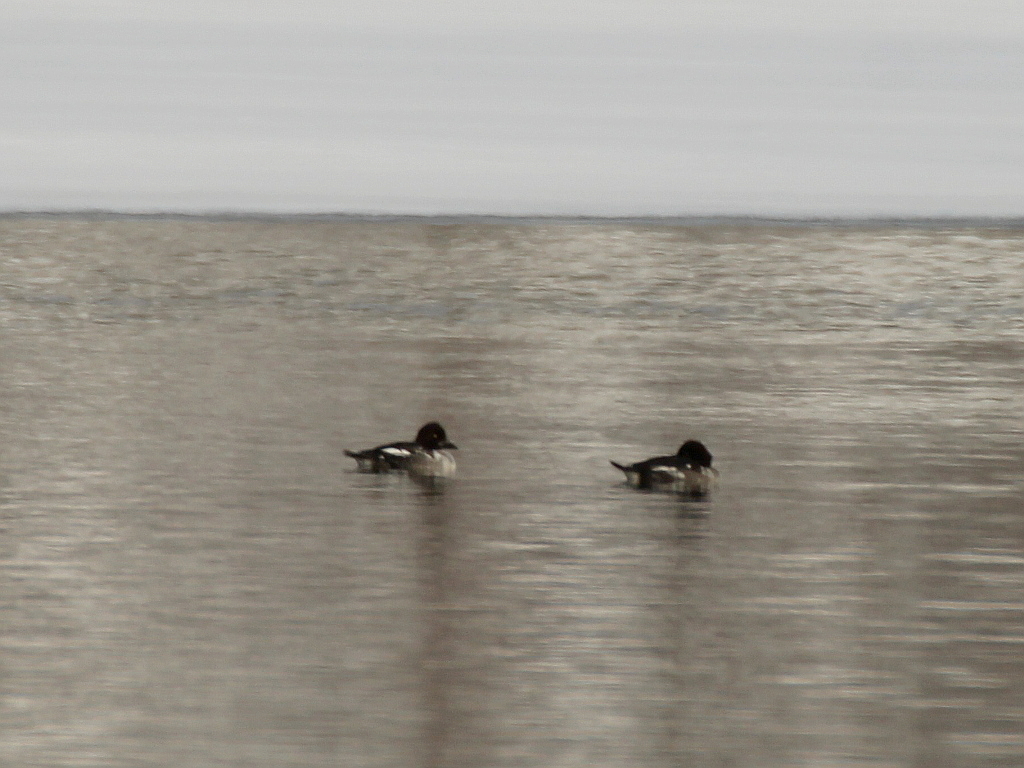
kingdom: Animalia
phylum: Chordata
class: Aves
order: Anseriformes
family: Anatidae
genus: Bucephala
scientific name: Bucephala clangula
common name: Common goldeneye
